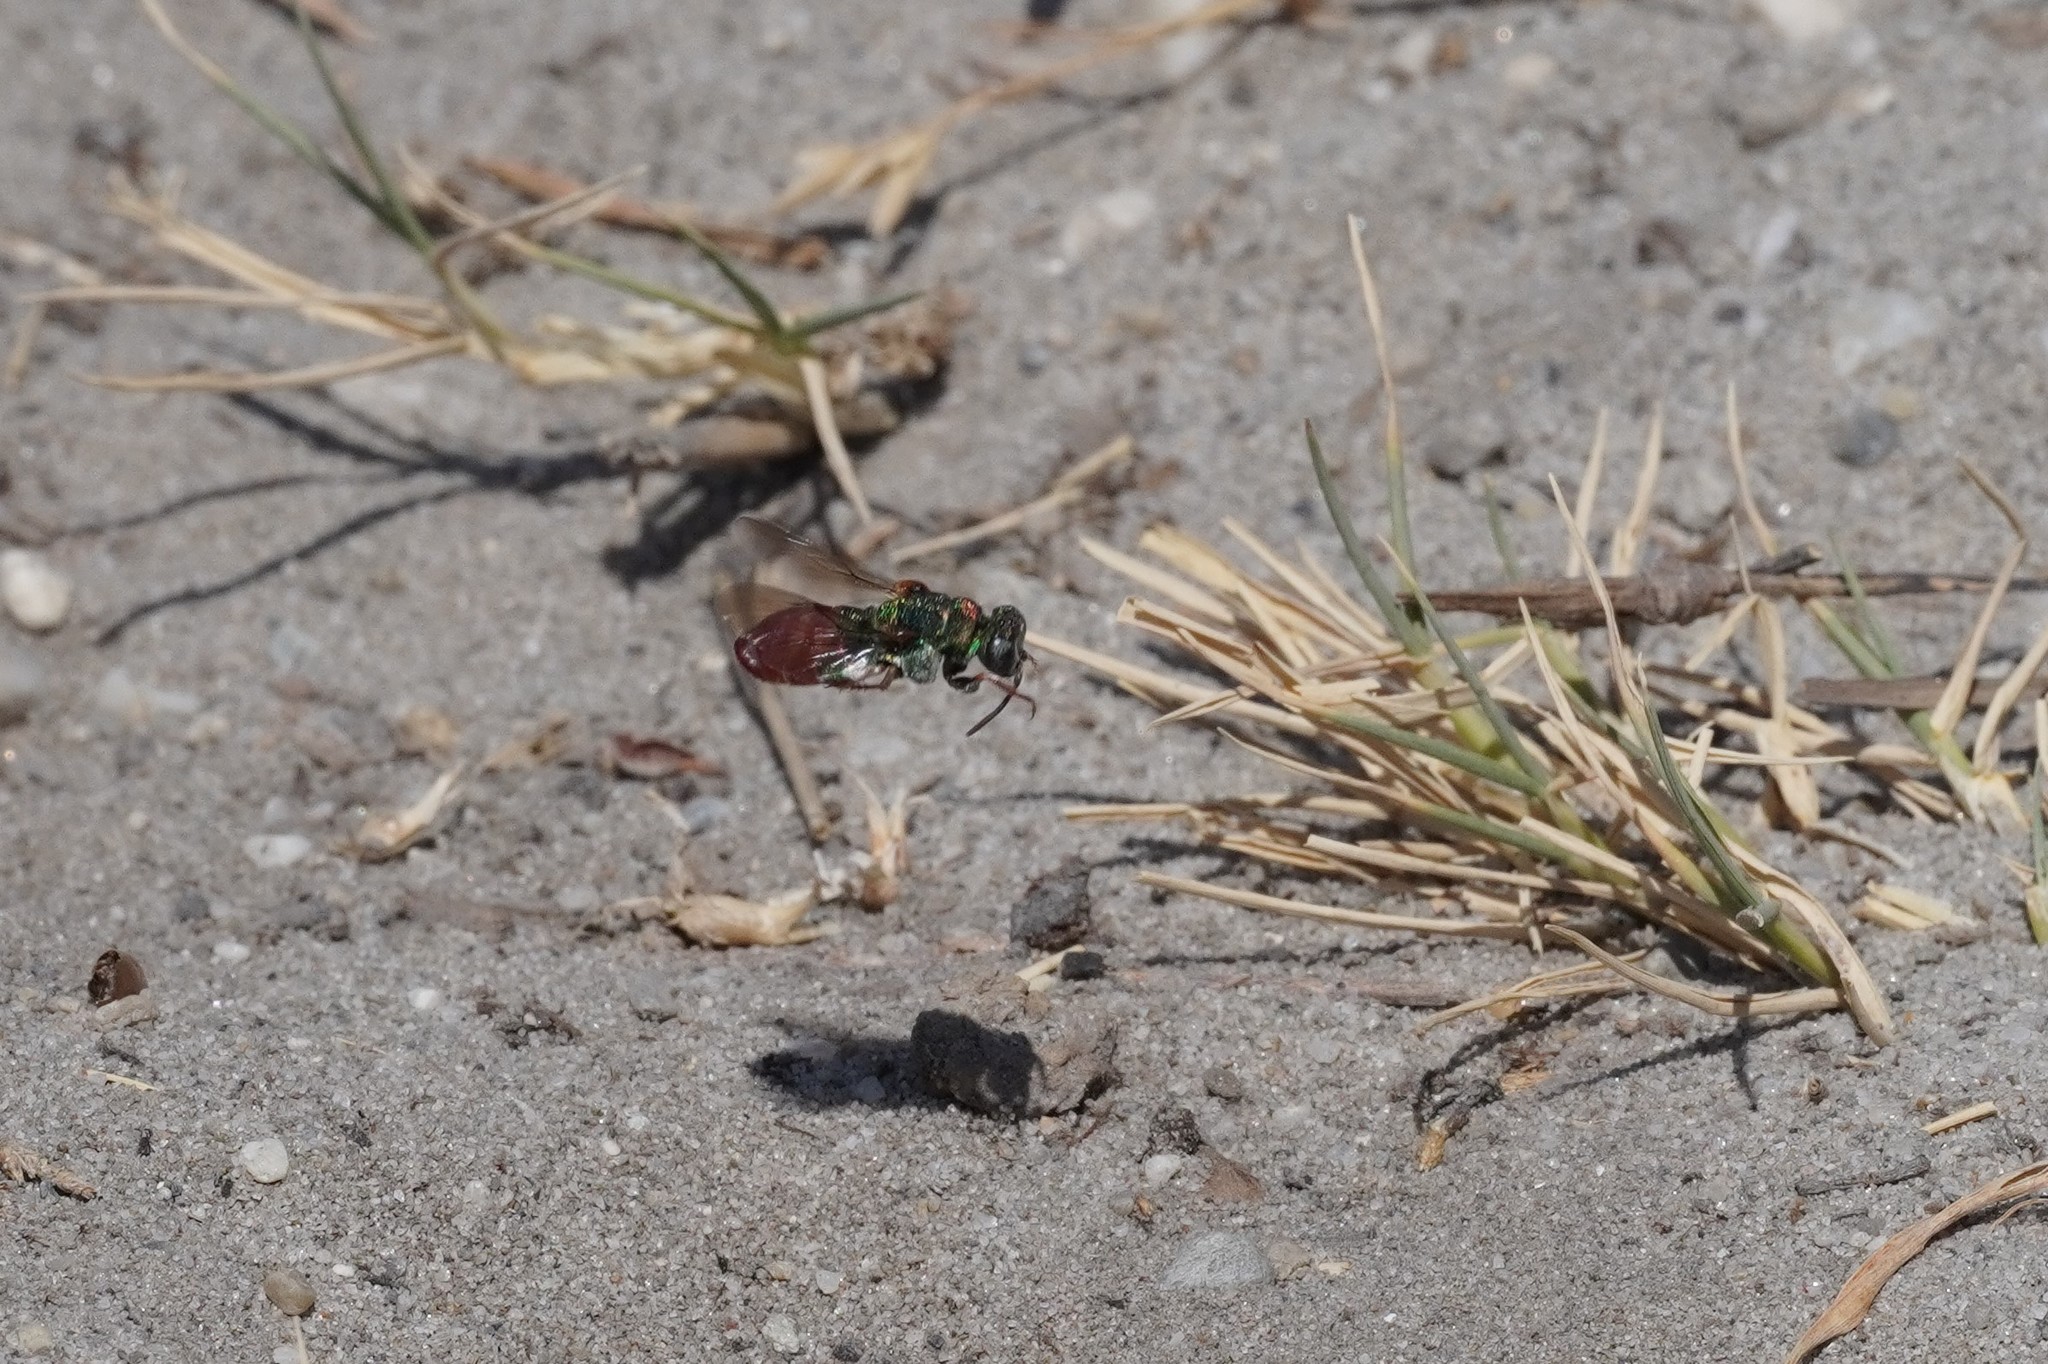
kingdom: Animalia
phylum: Arthropoda
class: Insecta
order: Hymenoptera
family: Chrysididae
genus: Parnopes
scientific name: Parnopes grandior
